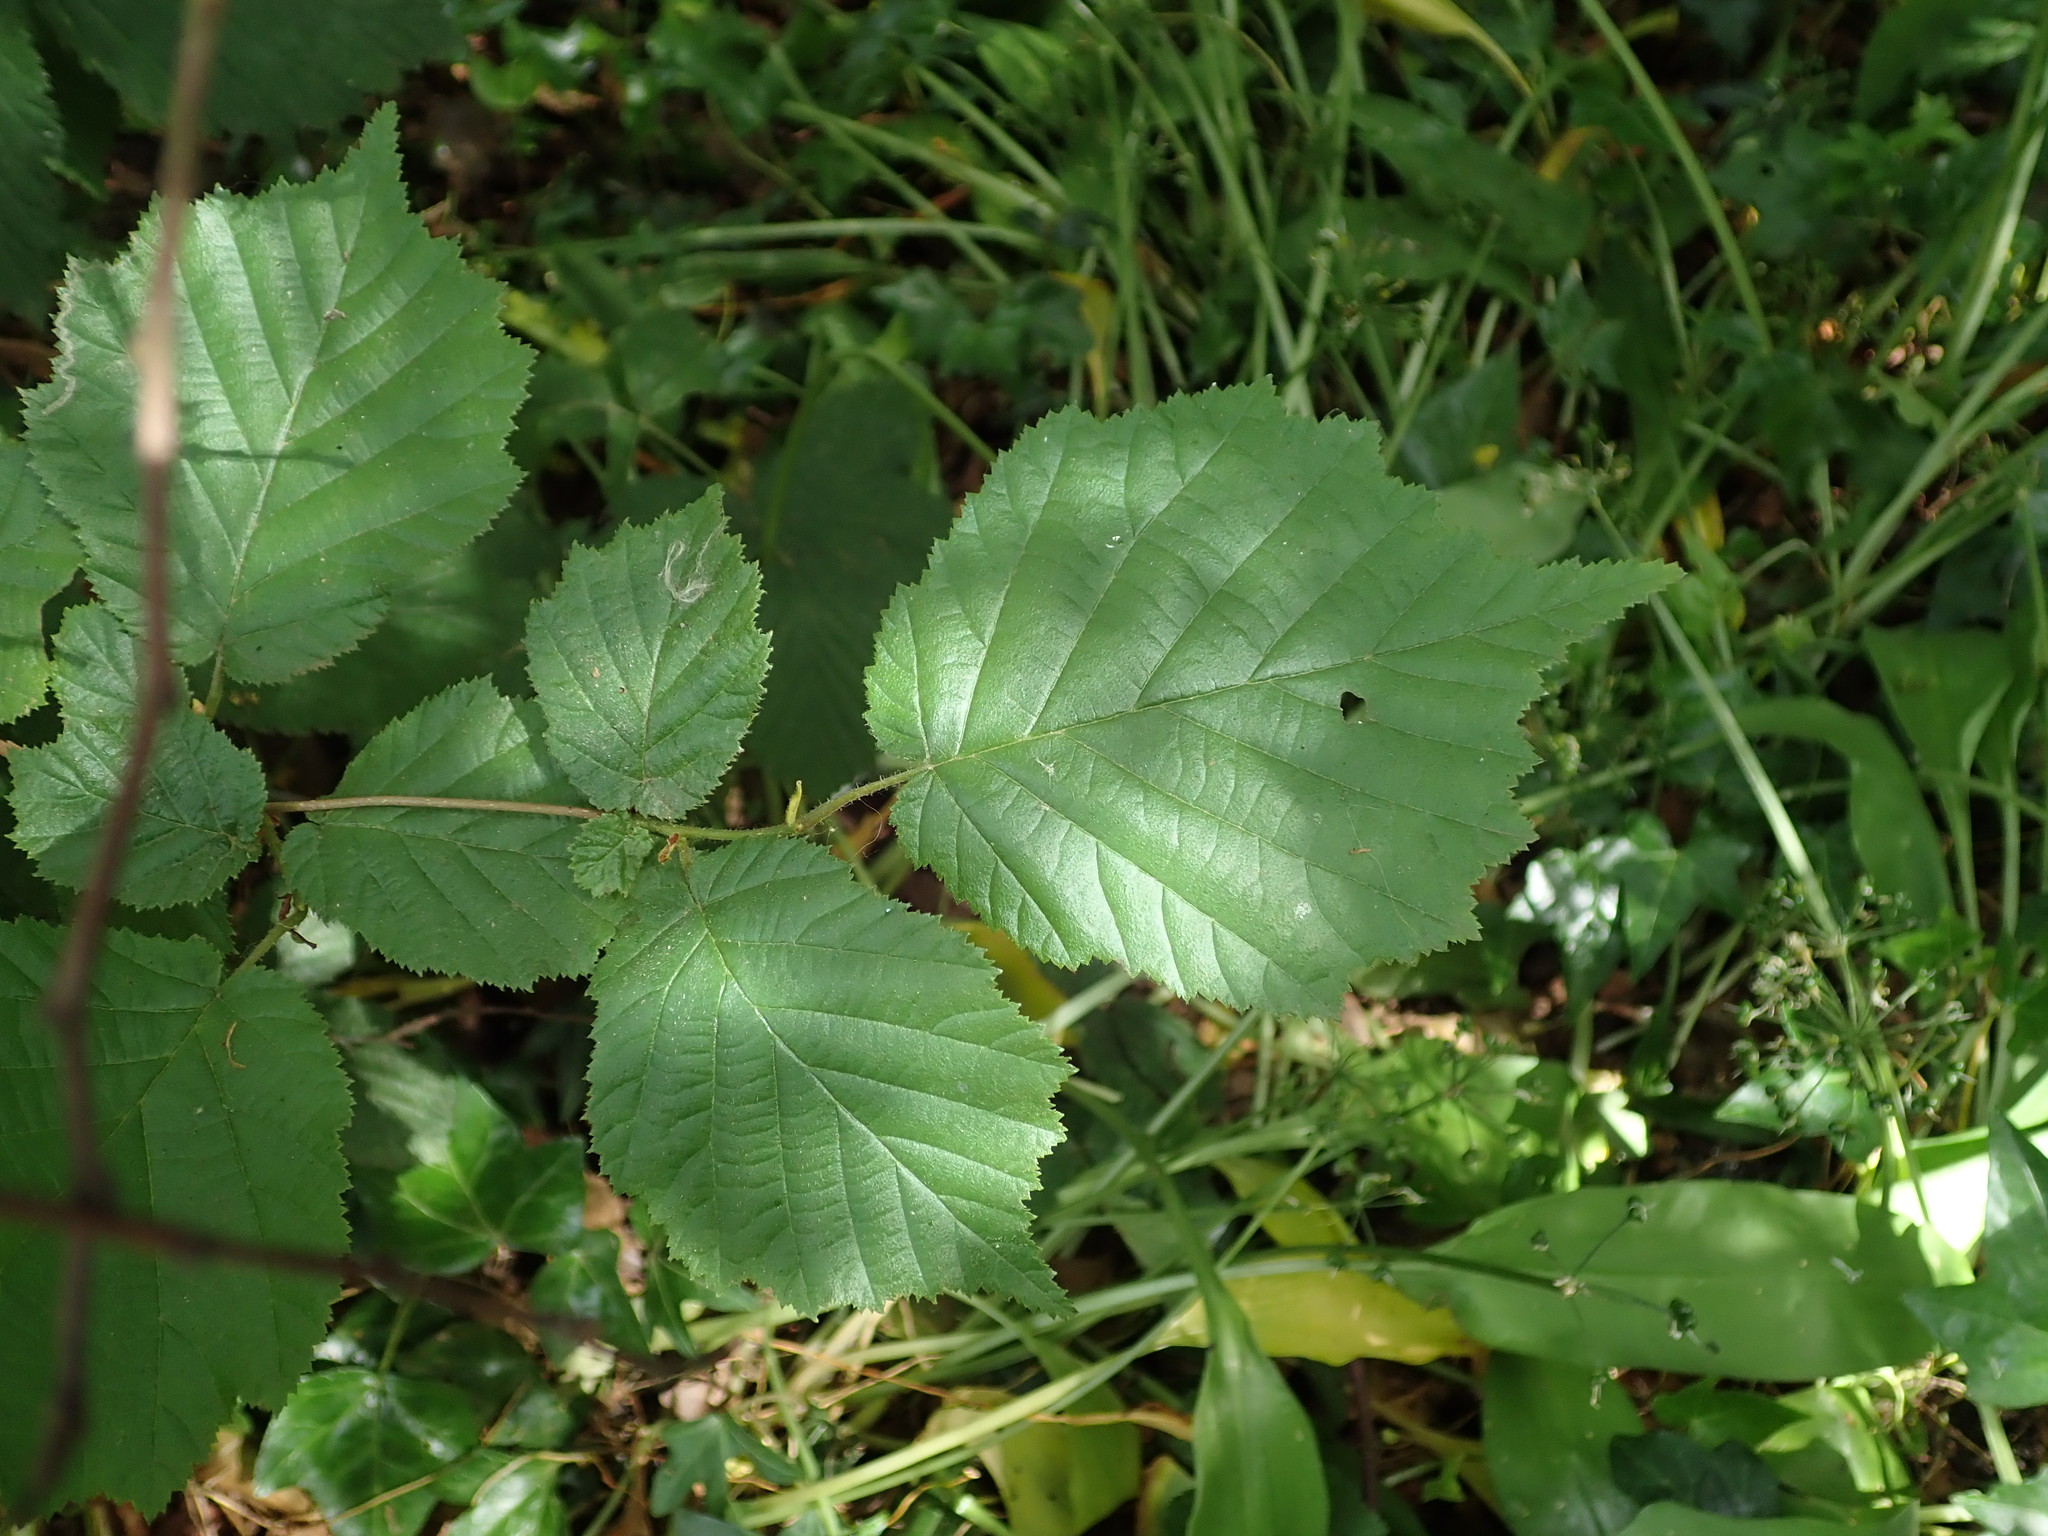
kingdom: Plantae
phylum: Tracheophyta
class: Magnoliopsida
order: Fagales
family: Betulaceae
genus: Corylus
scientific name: Corylus avellana
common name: European hazel
